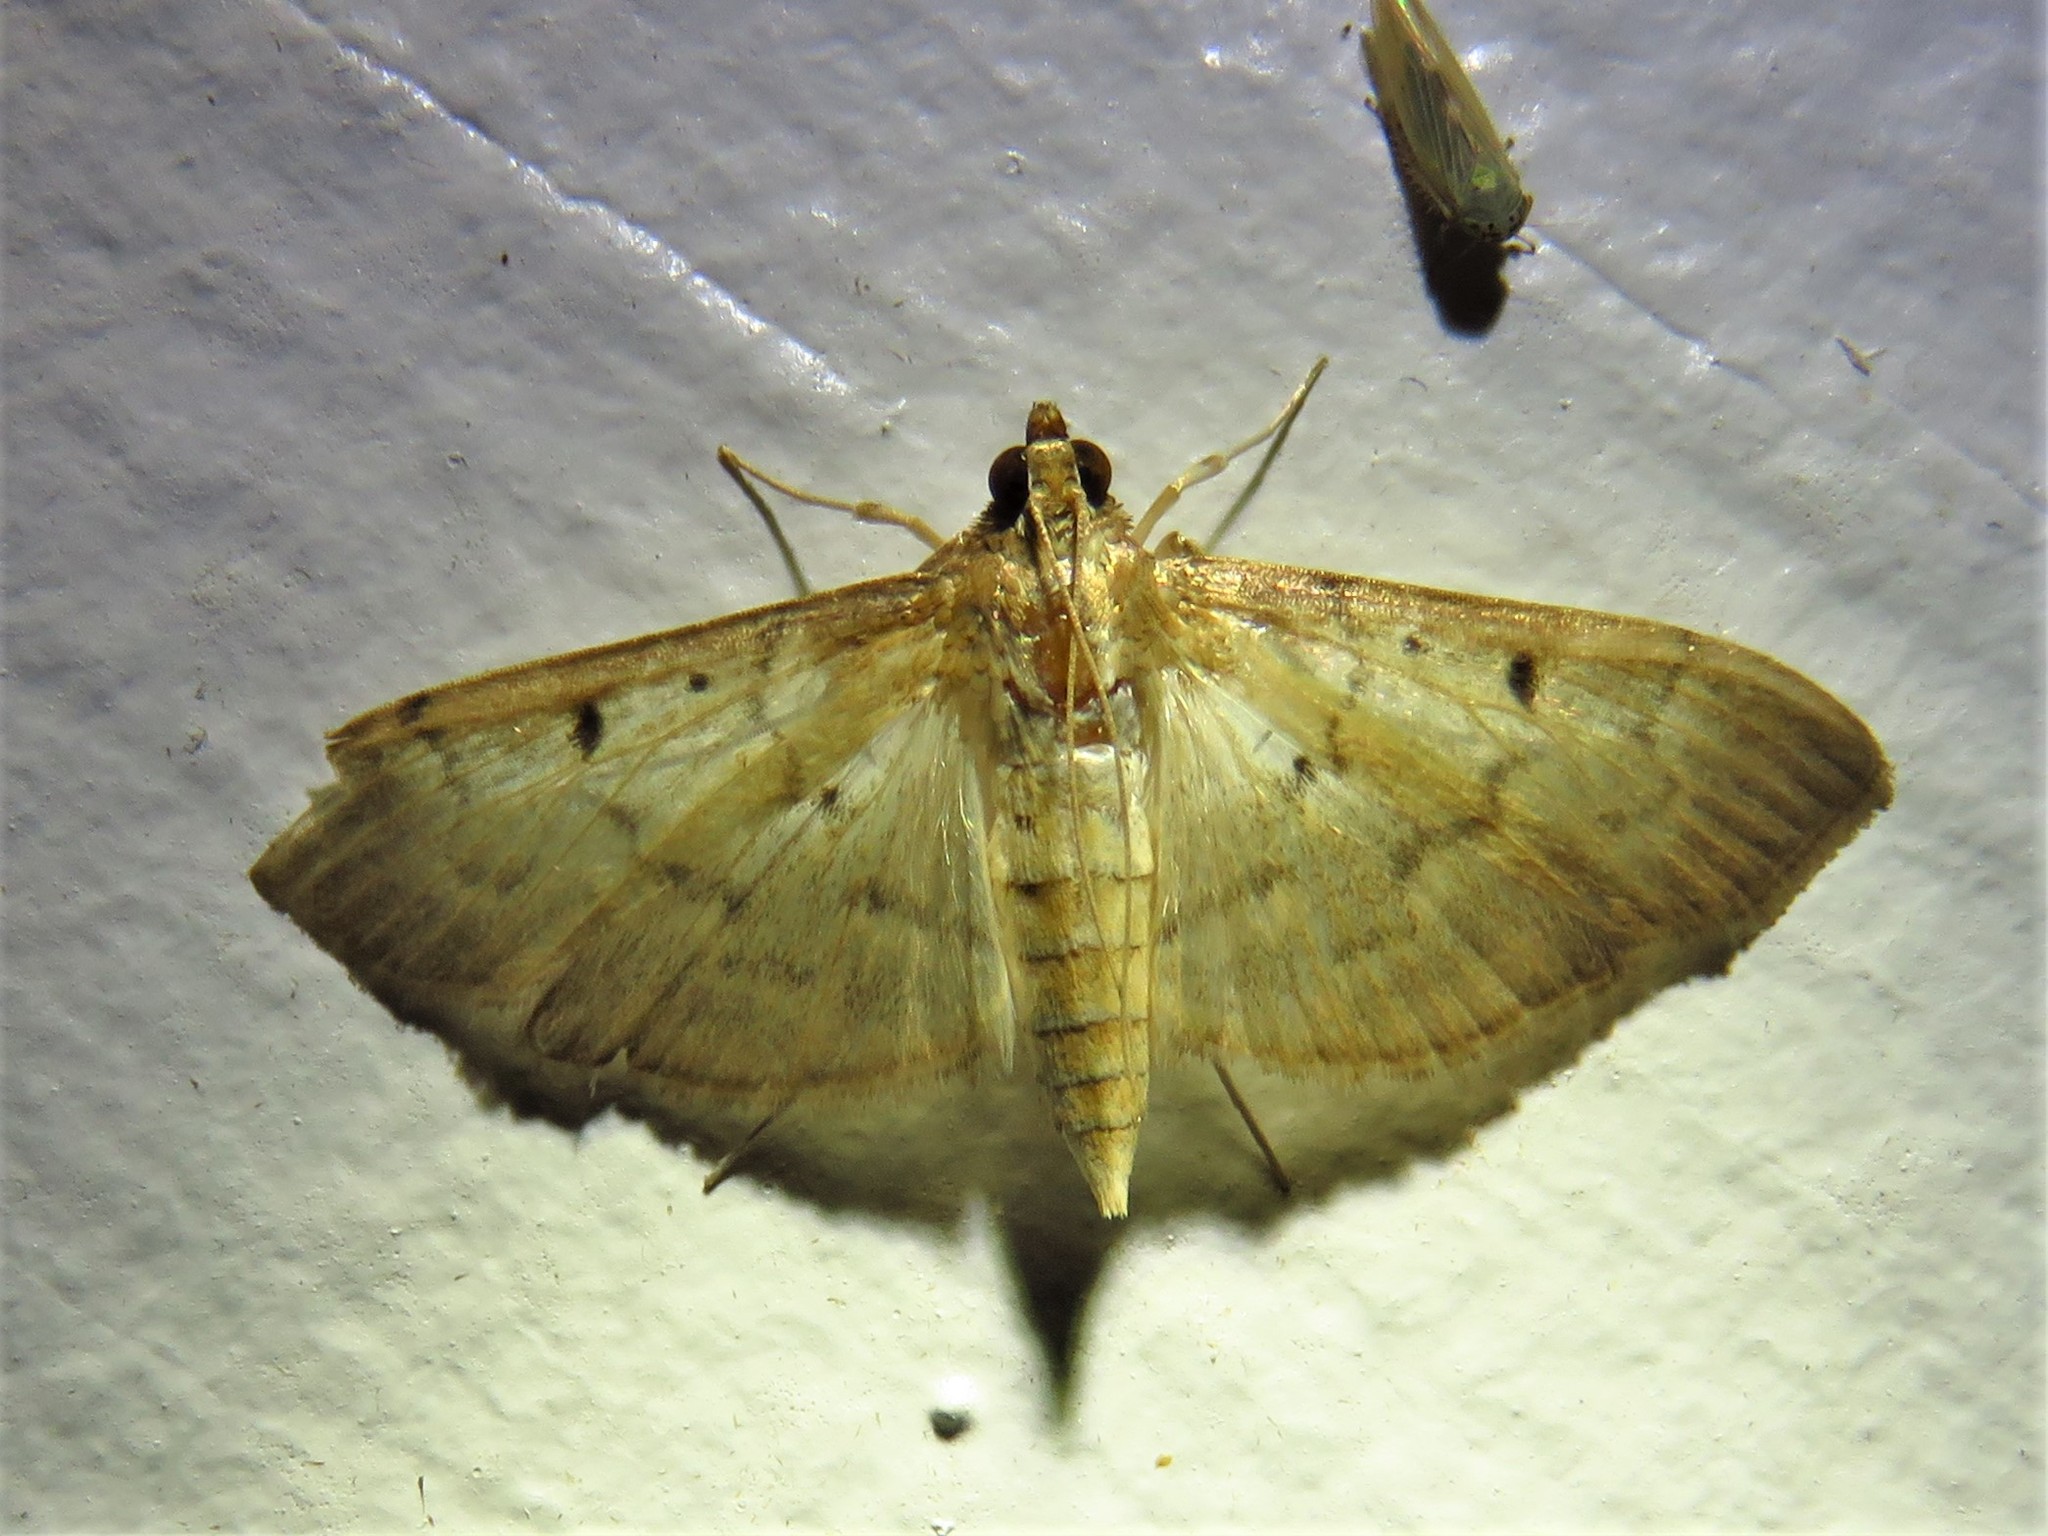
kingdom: Animalia
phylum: Arthropoda
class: Insecta
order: Lepidoptera
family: Crambidae
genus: Herpetogramma
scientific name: Herpetogramma bipunctalis
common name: Southern beet webworm
